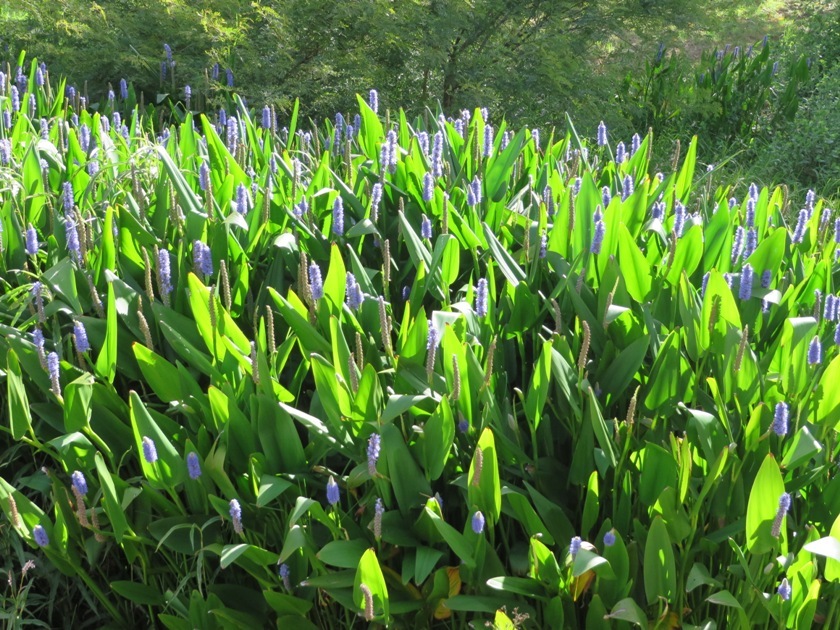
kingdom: Plantae
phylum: Tracheophyta
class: Liliopsida
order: Commelinales
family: Pontederiaceae
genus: Pontederia
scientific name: Pontederia cordata
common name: Pickerelweed
